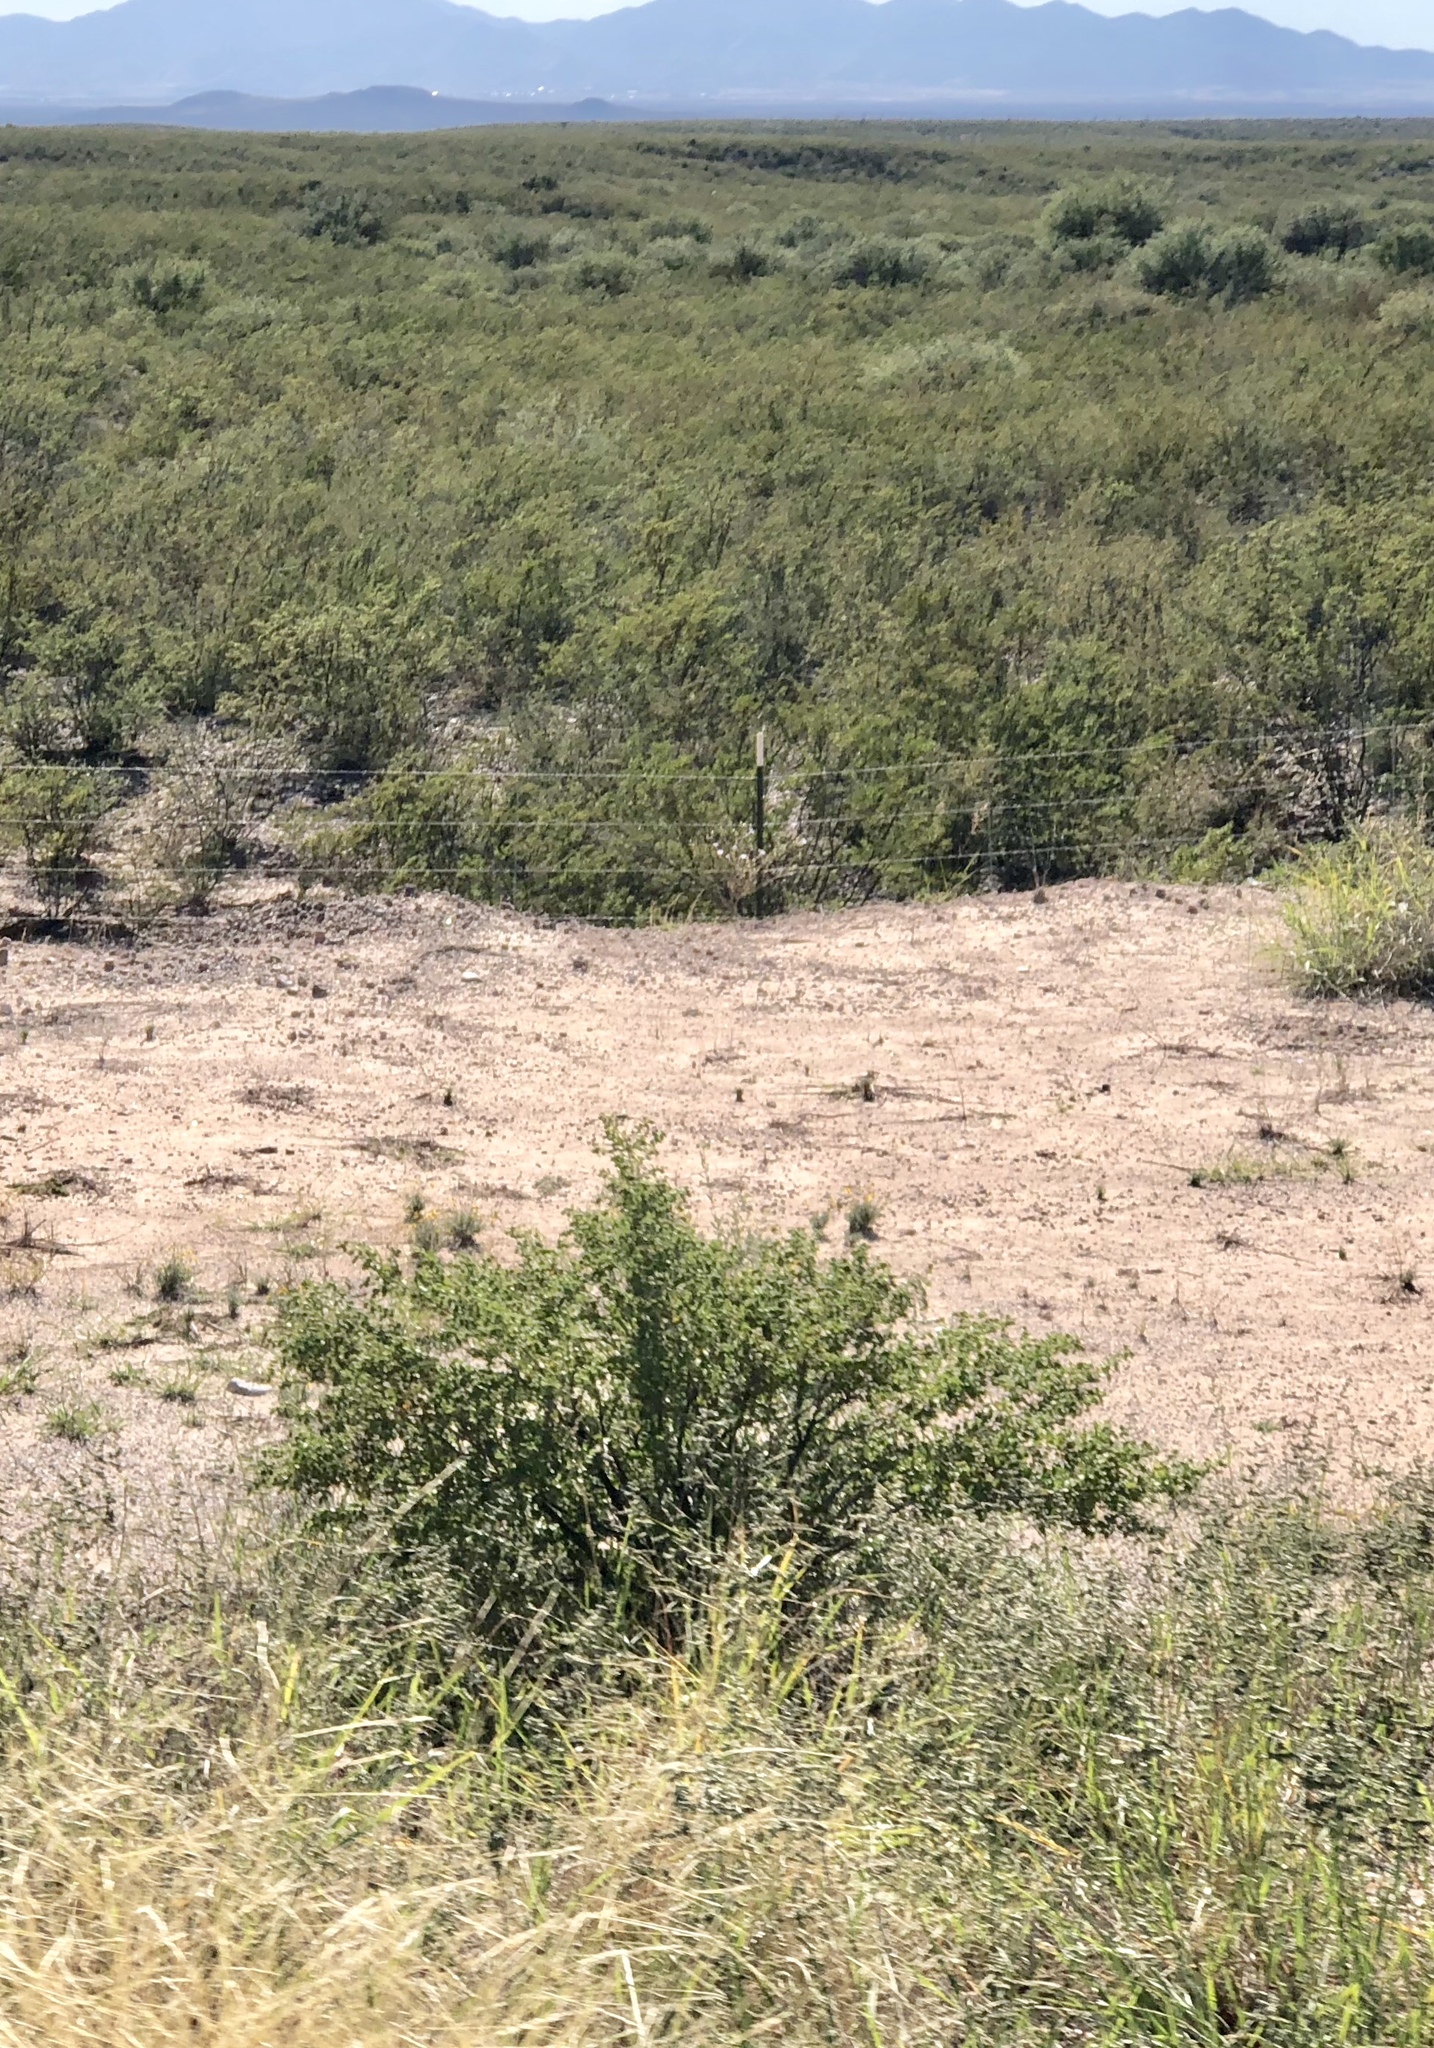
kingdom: Plantae
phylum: Tracheophyta
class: Magnoliopsida
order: Zygophyllales
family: Zygophyllaceae
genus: Larrea
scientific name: Larrea tridentata
